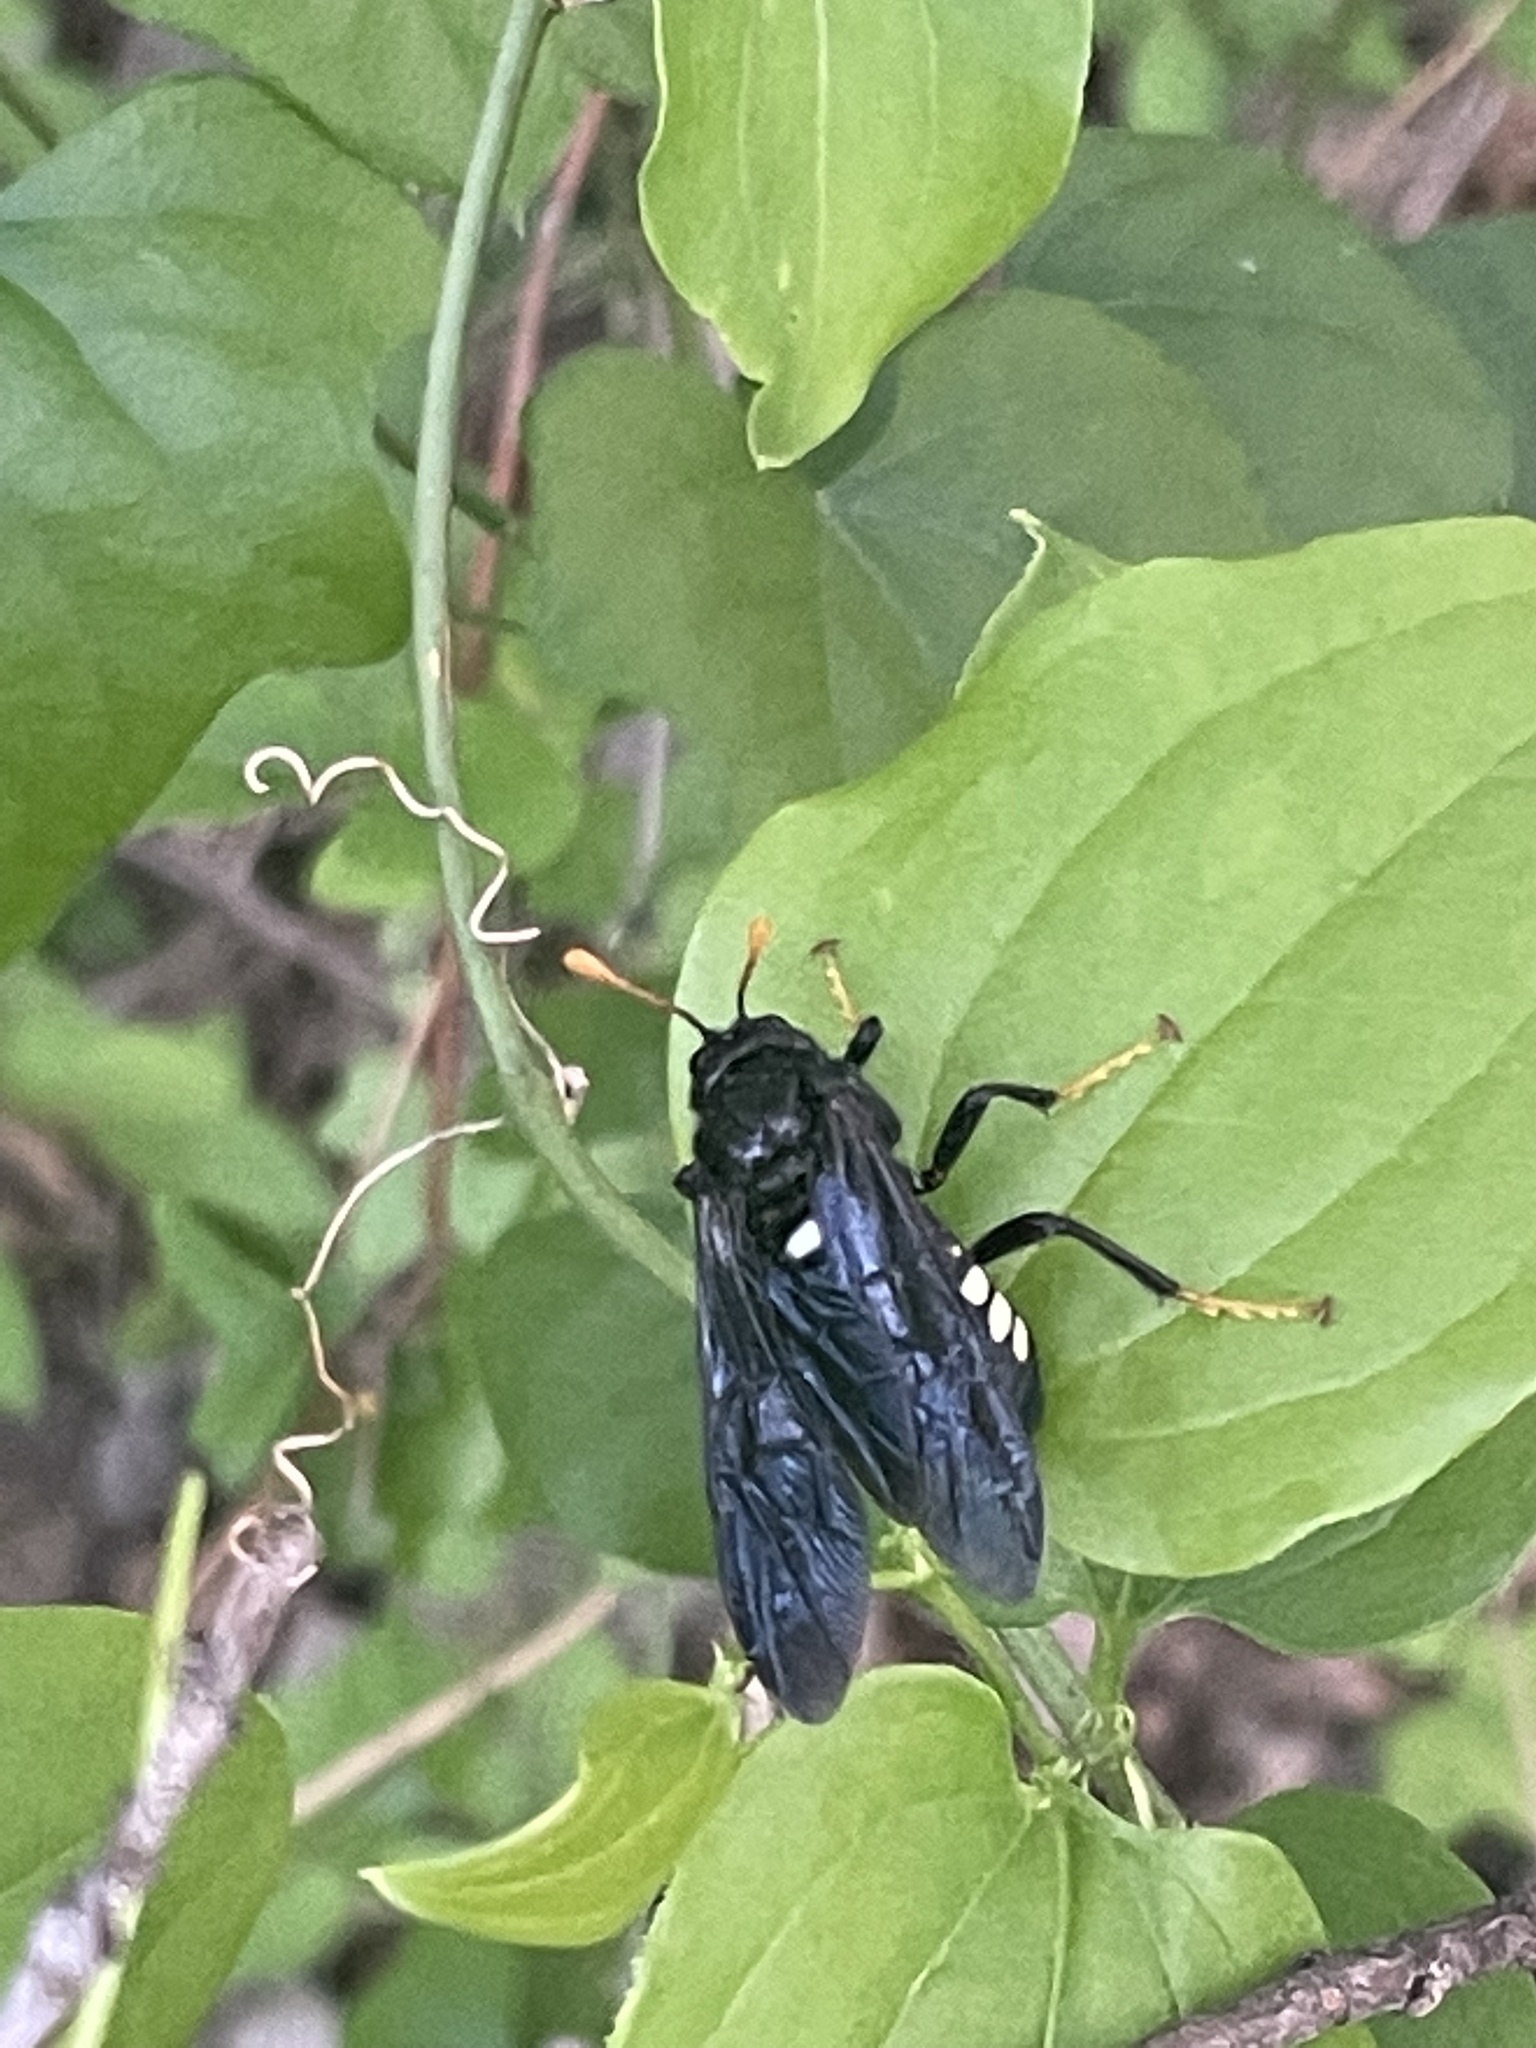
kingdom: Animalia
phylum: Arthropoda
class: Insecta
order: Hymenoptera
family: Cimbicidae
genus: Cimbex
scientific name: Cimbex americana
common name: Elm sawfly
